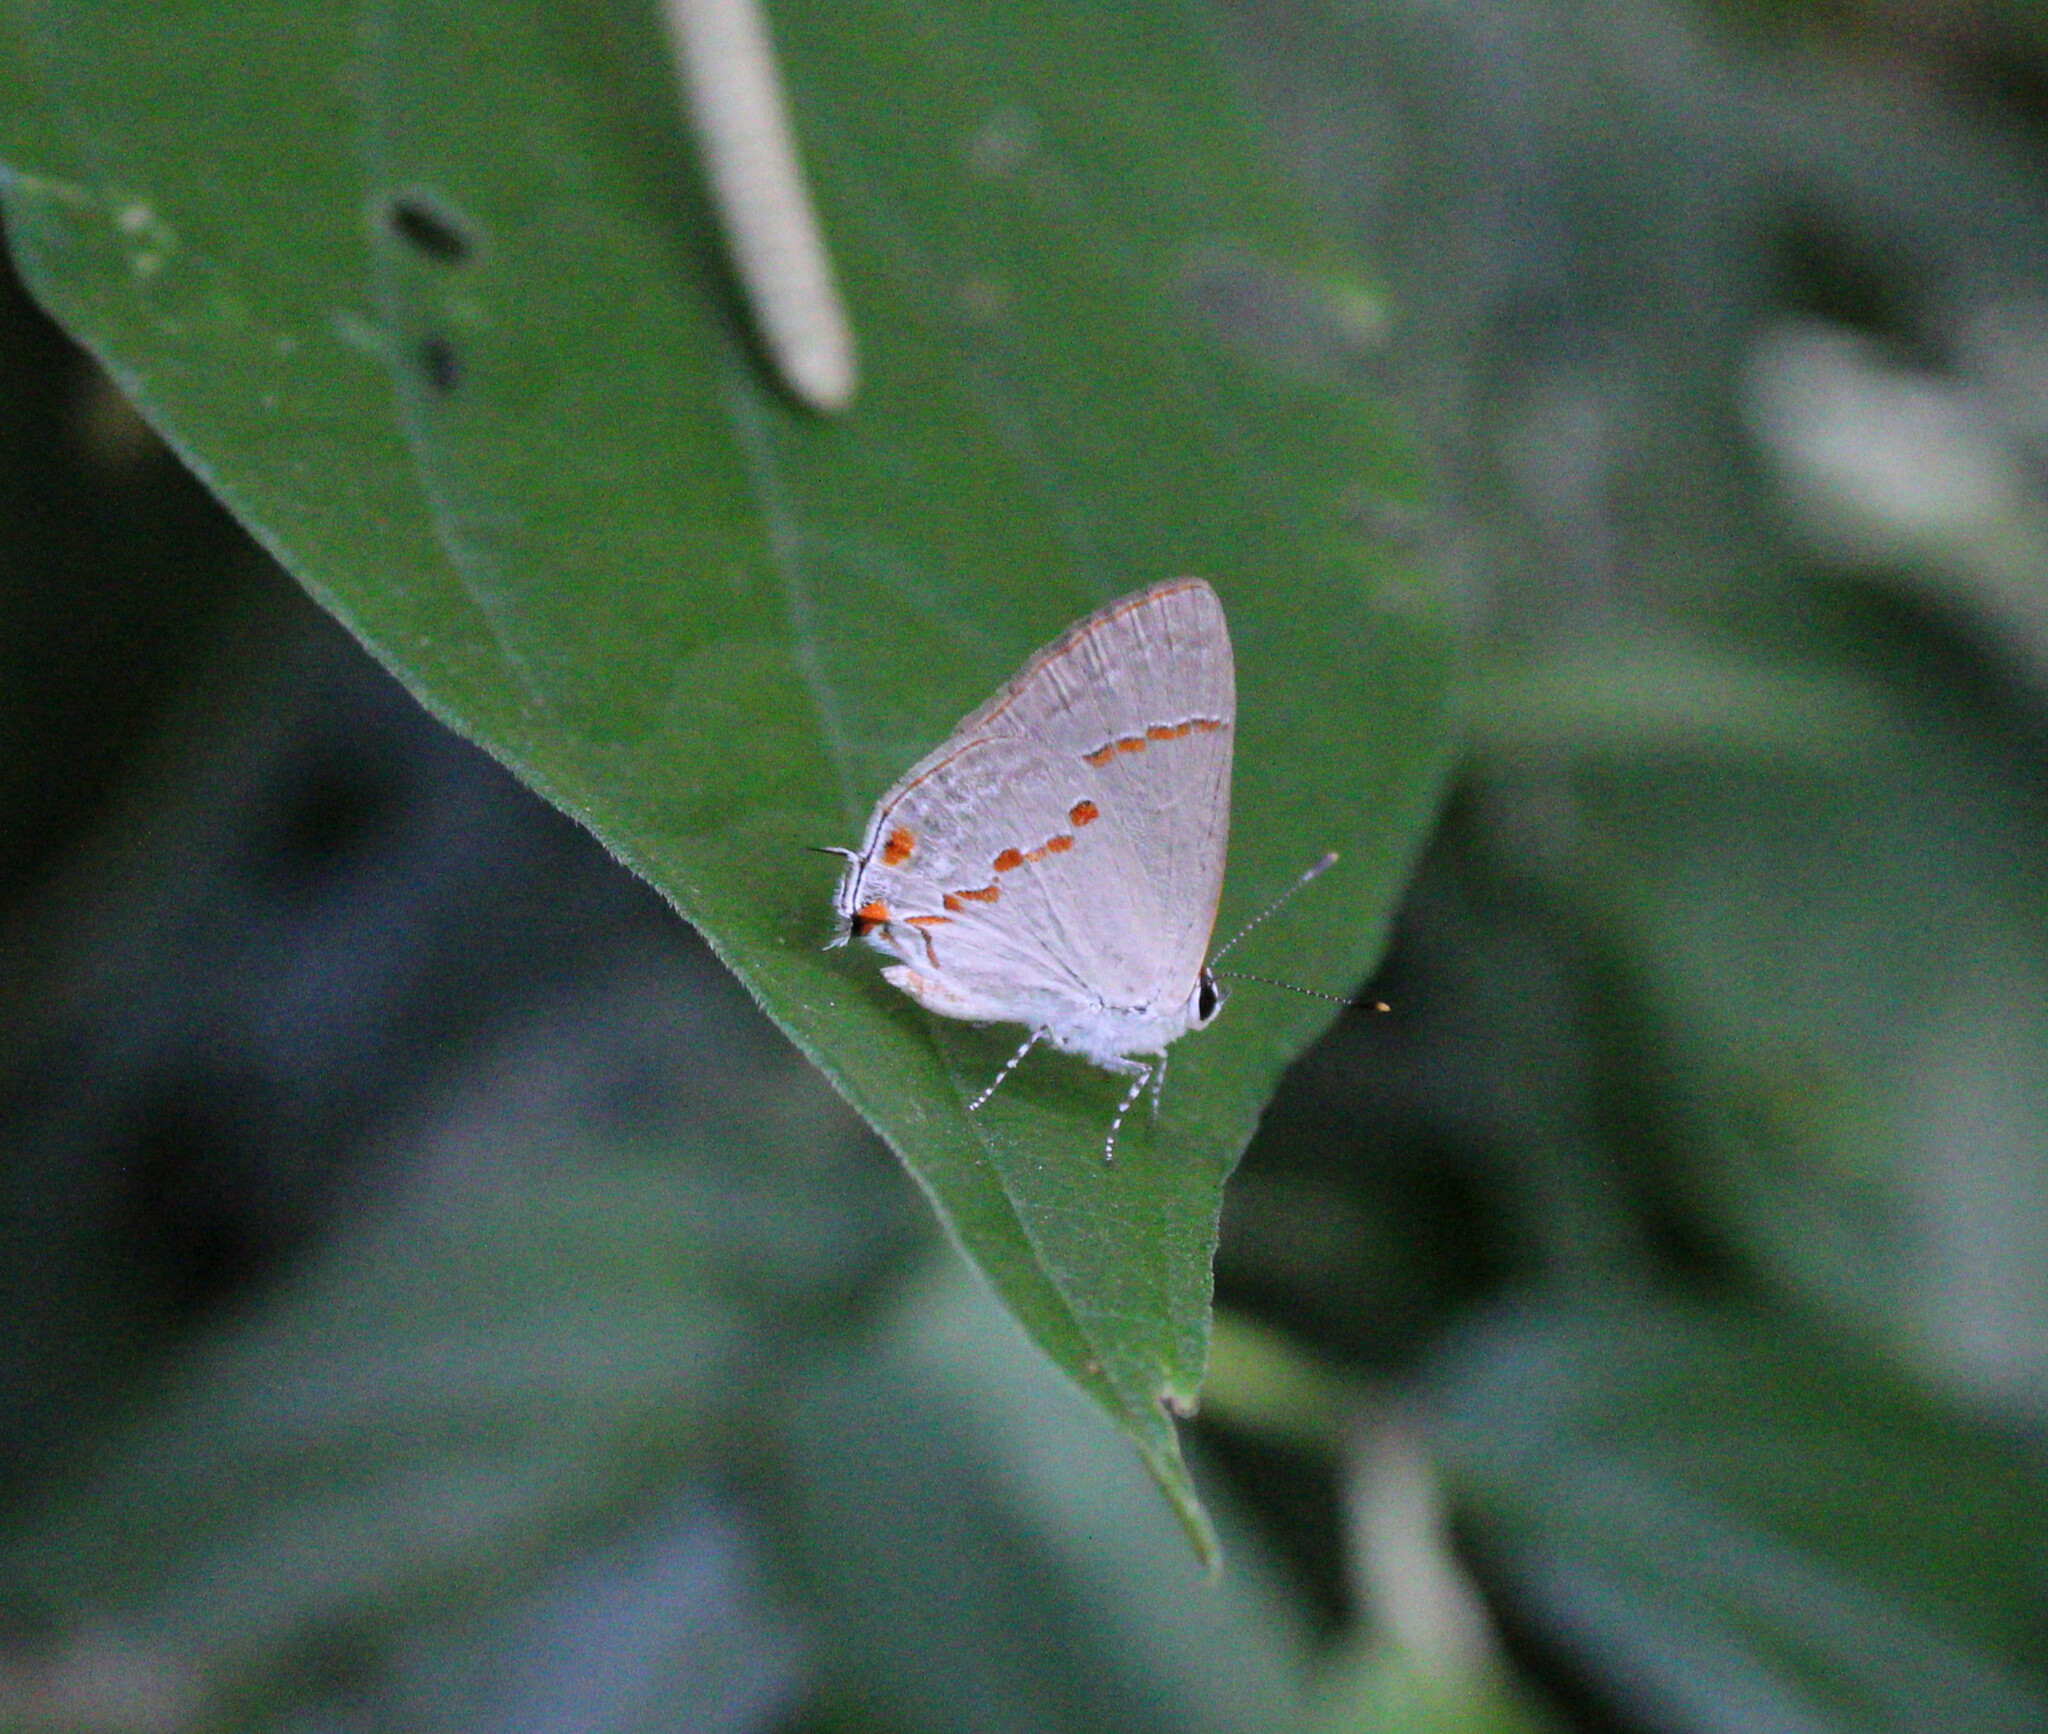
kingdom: Animalia
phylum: Arthropoda
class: Insecta
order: Lepidoptera
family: Lycaenidae
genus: Thecla
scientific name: Thecla azia
